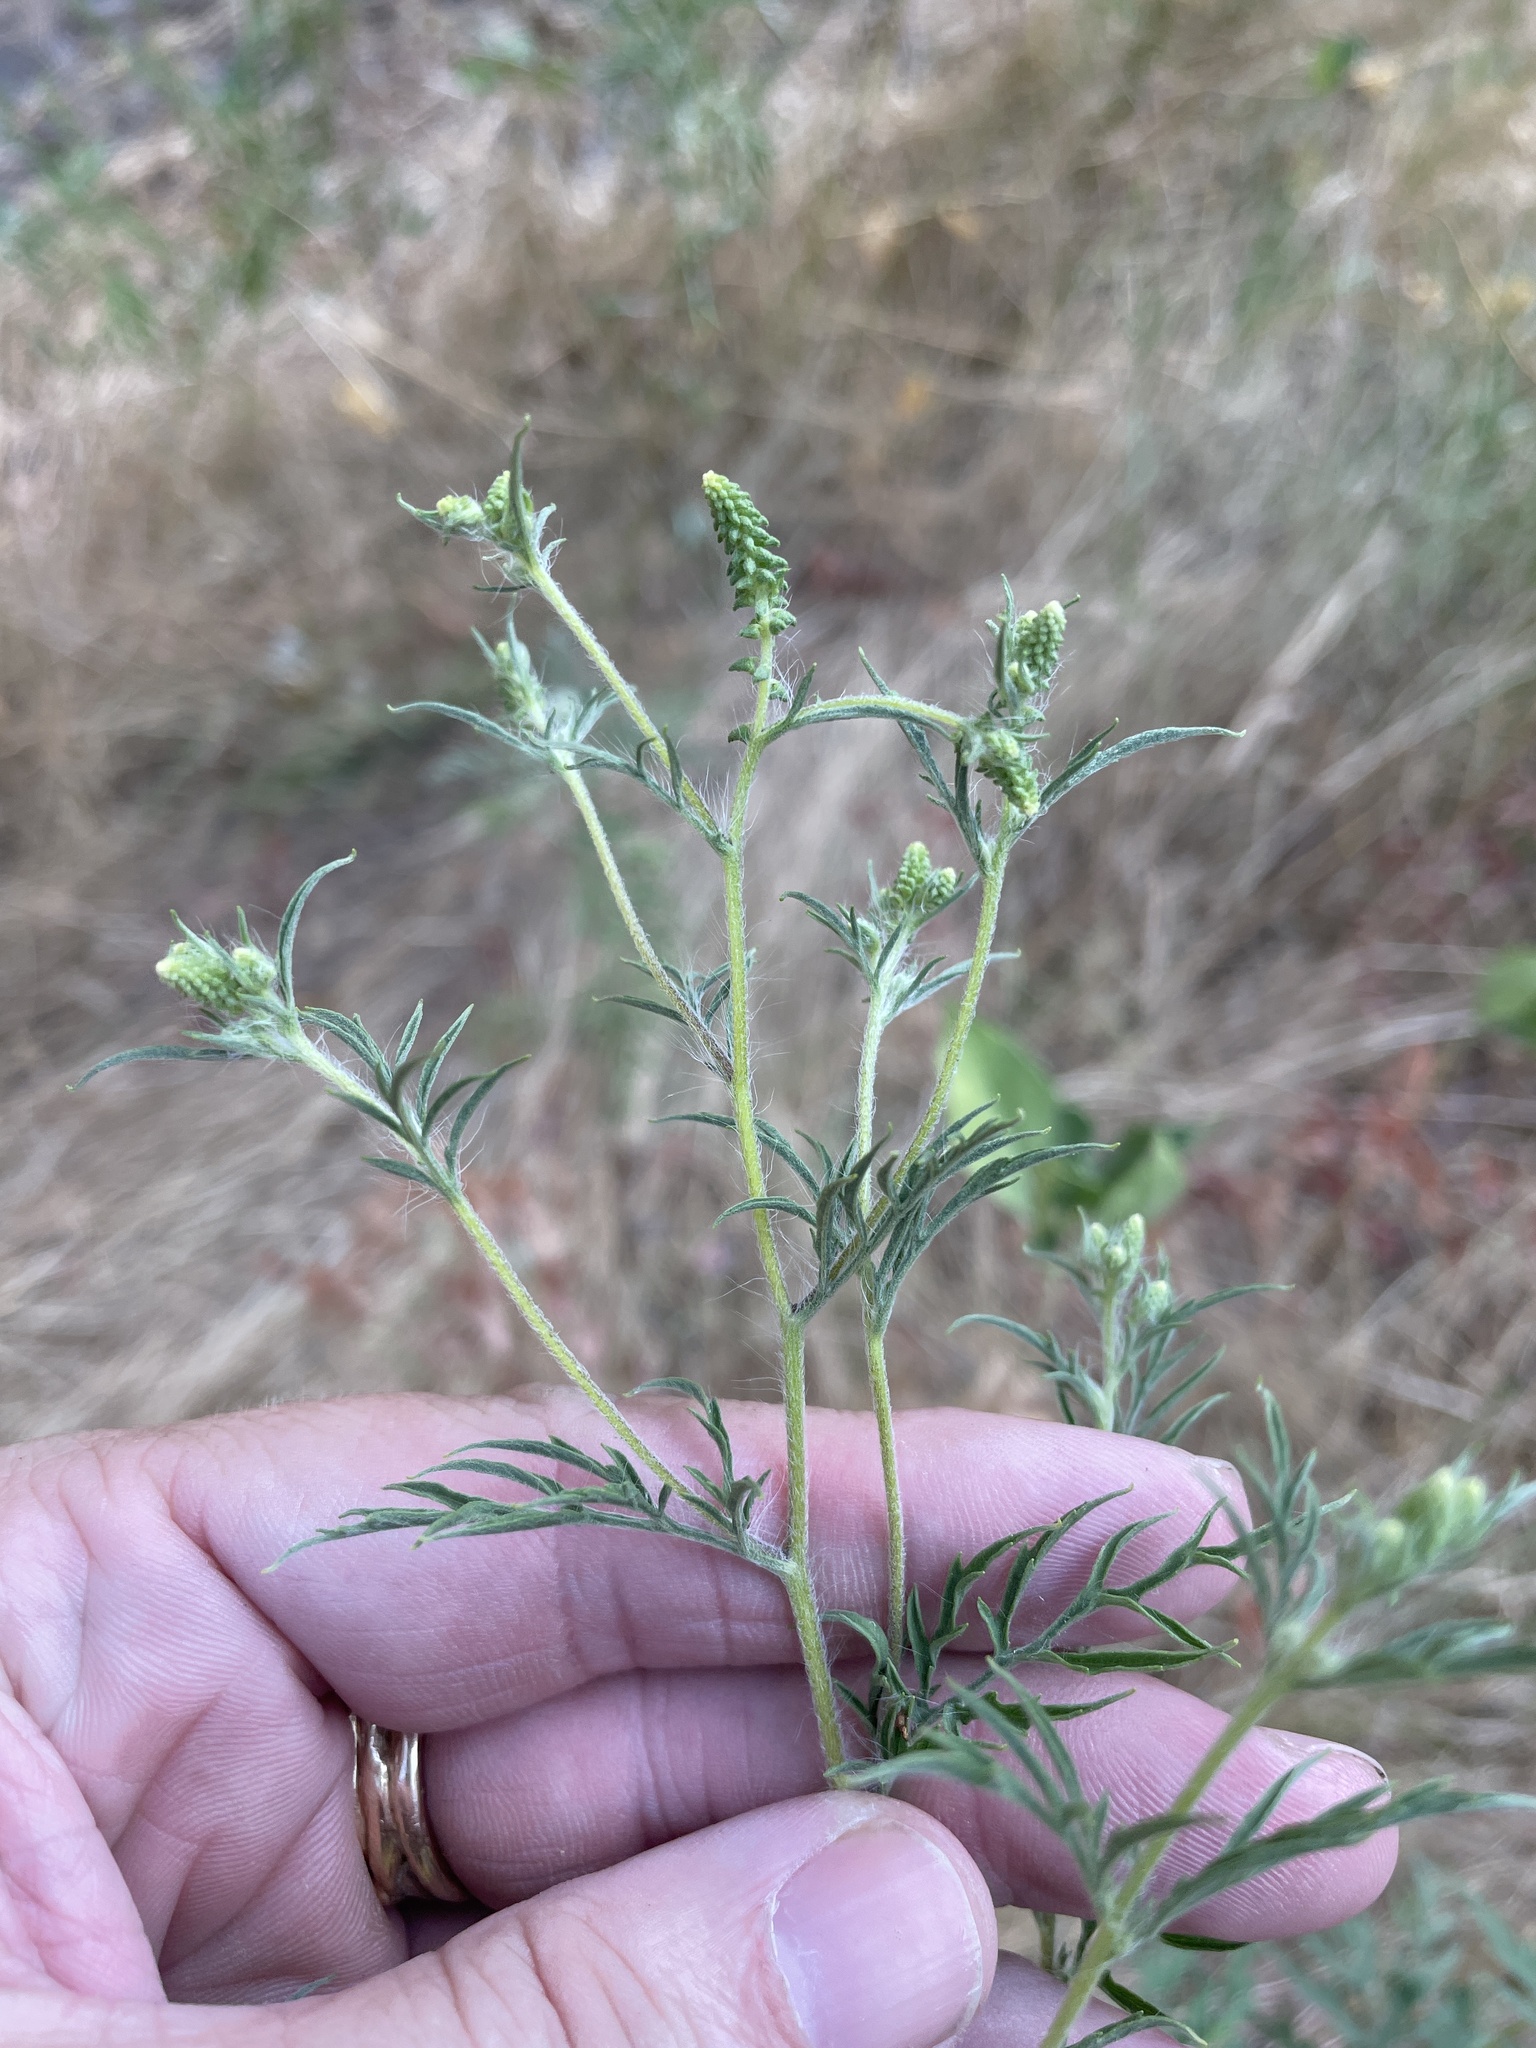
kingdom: Plantae
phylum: Tracheophyta
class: Magnoliopsida
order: Asterales
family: Asteraceae
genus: Ambrosia
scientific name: Ambrosia artemisiifolia
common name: Annual ragweed
